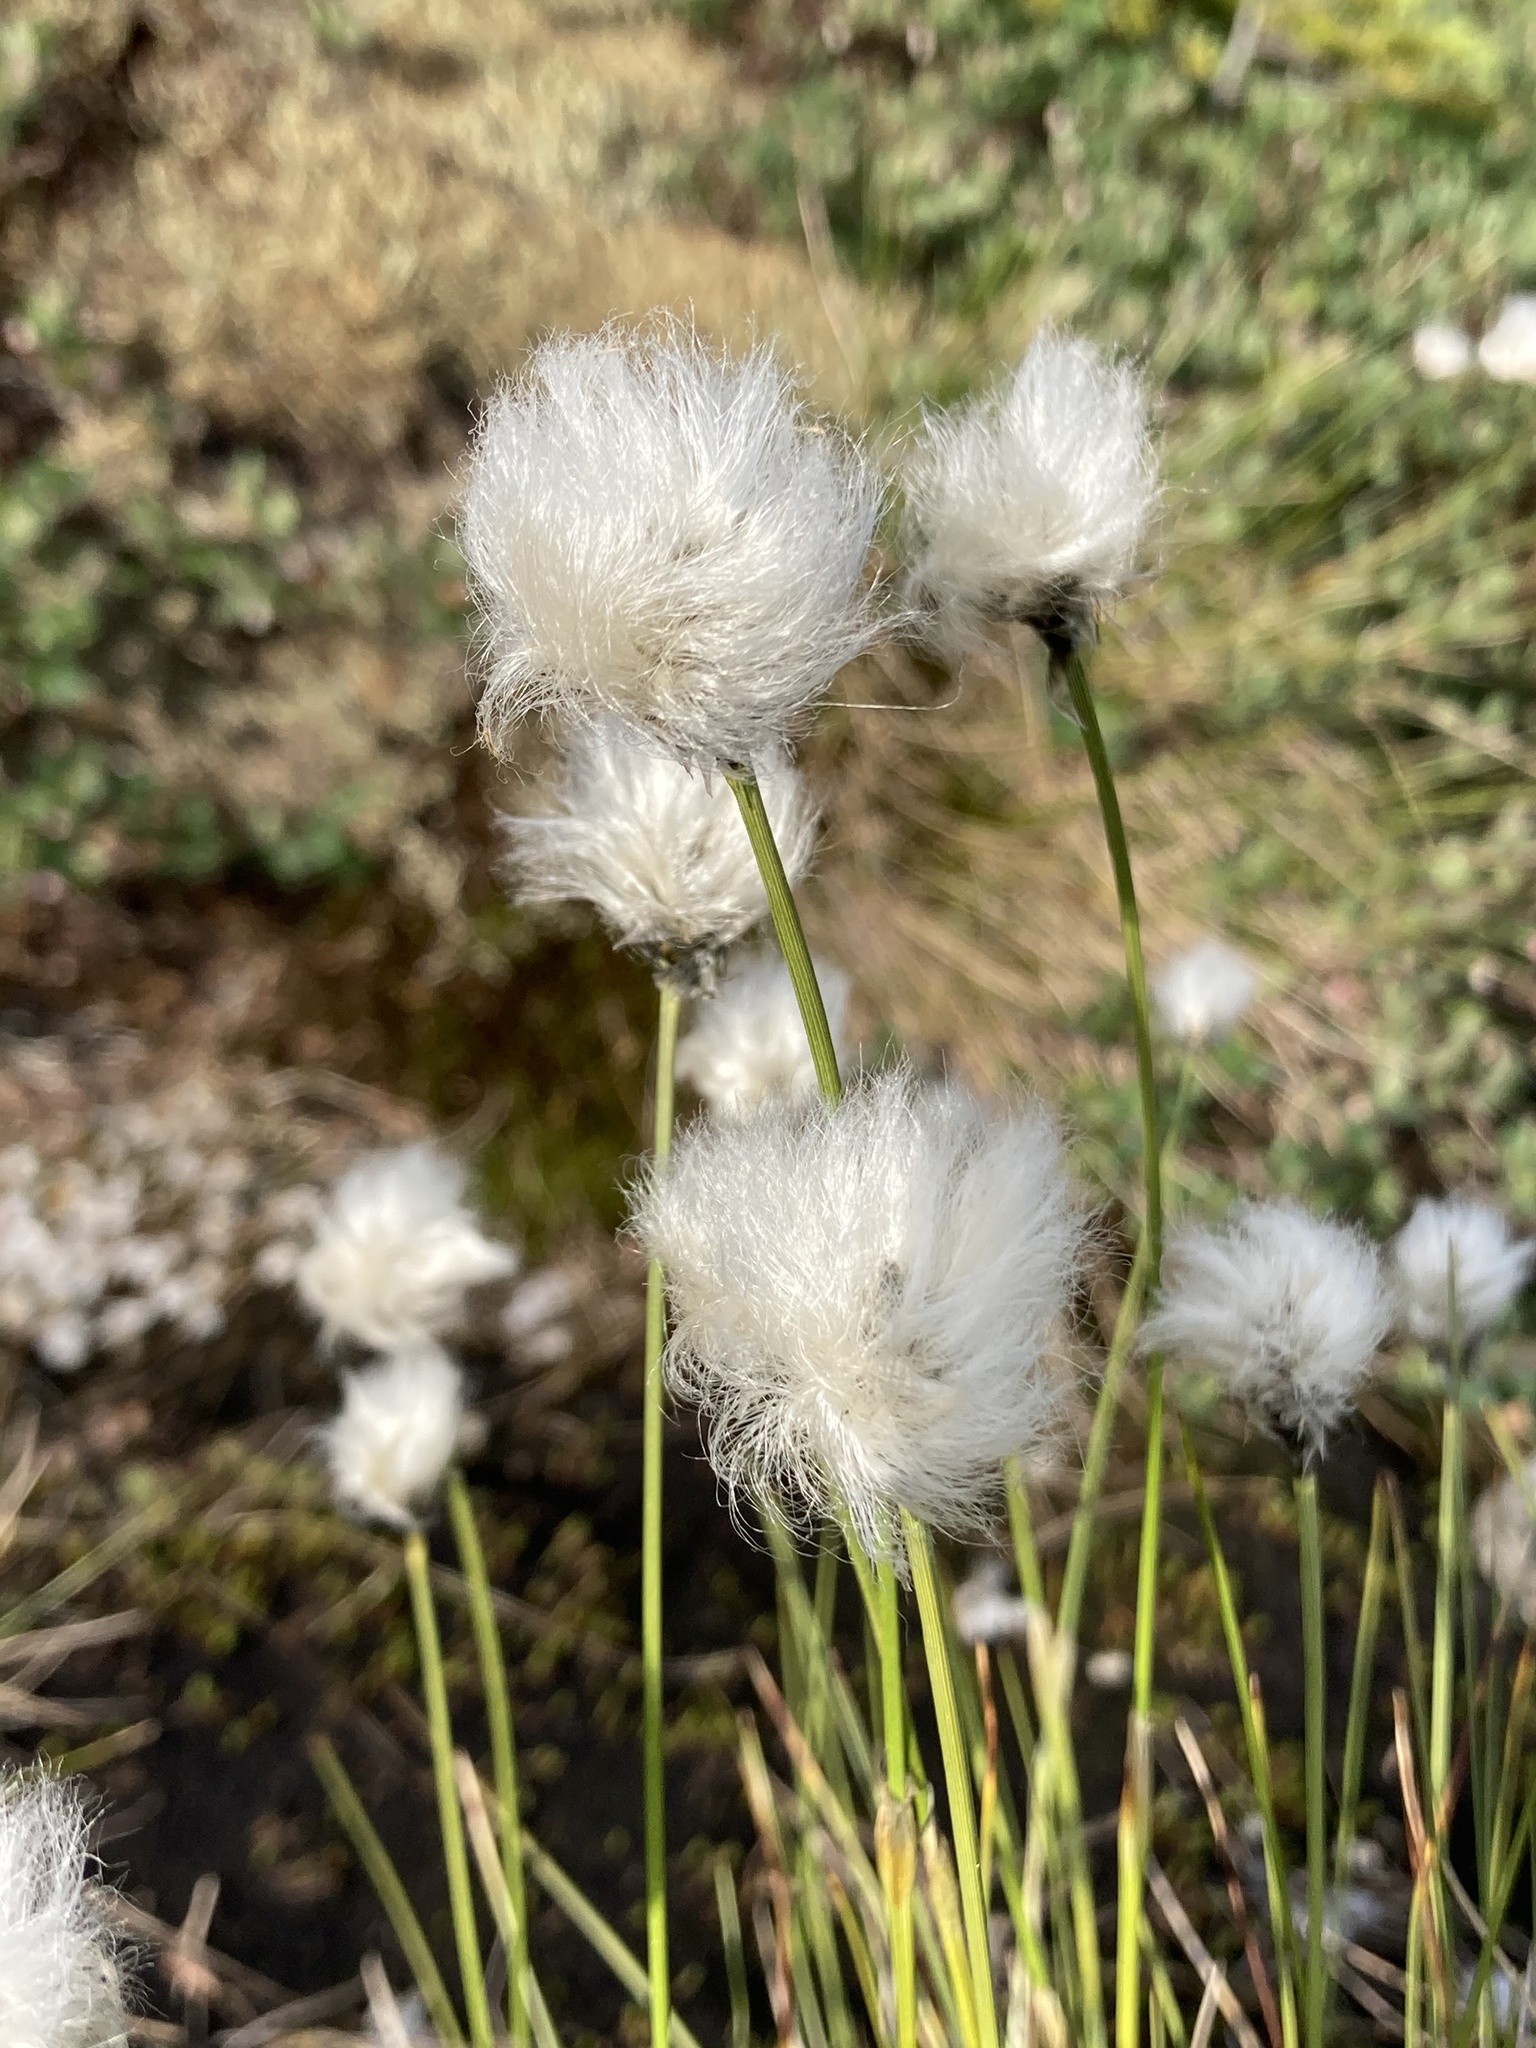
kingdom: Plantae
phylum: Tracheophyta
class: Liliopsida
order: Poales
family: Cyperaceae
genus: Eriophorum
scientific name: Eriophorum vaginatum
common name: Hare's-tail cottongrass
